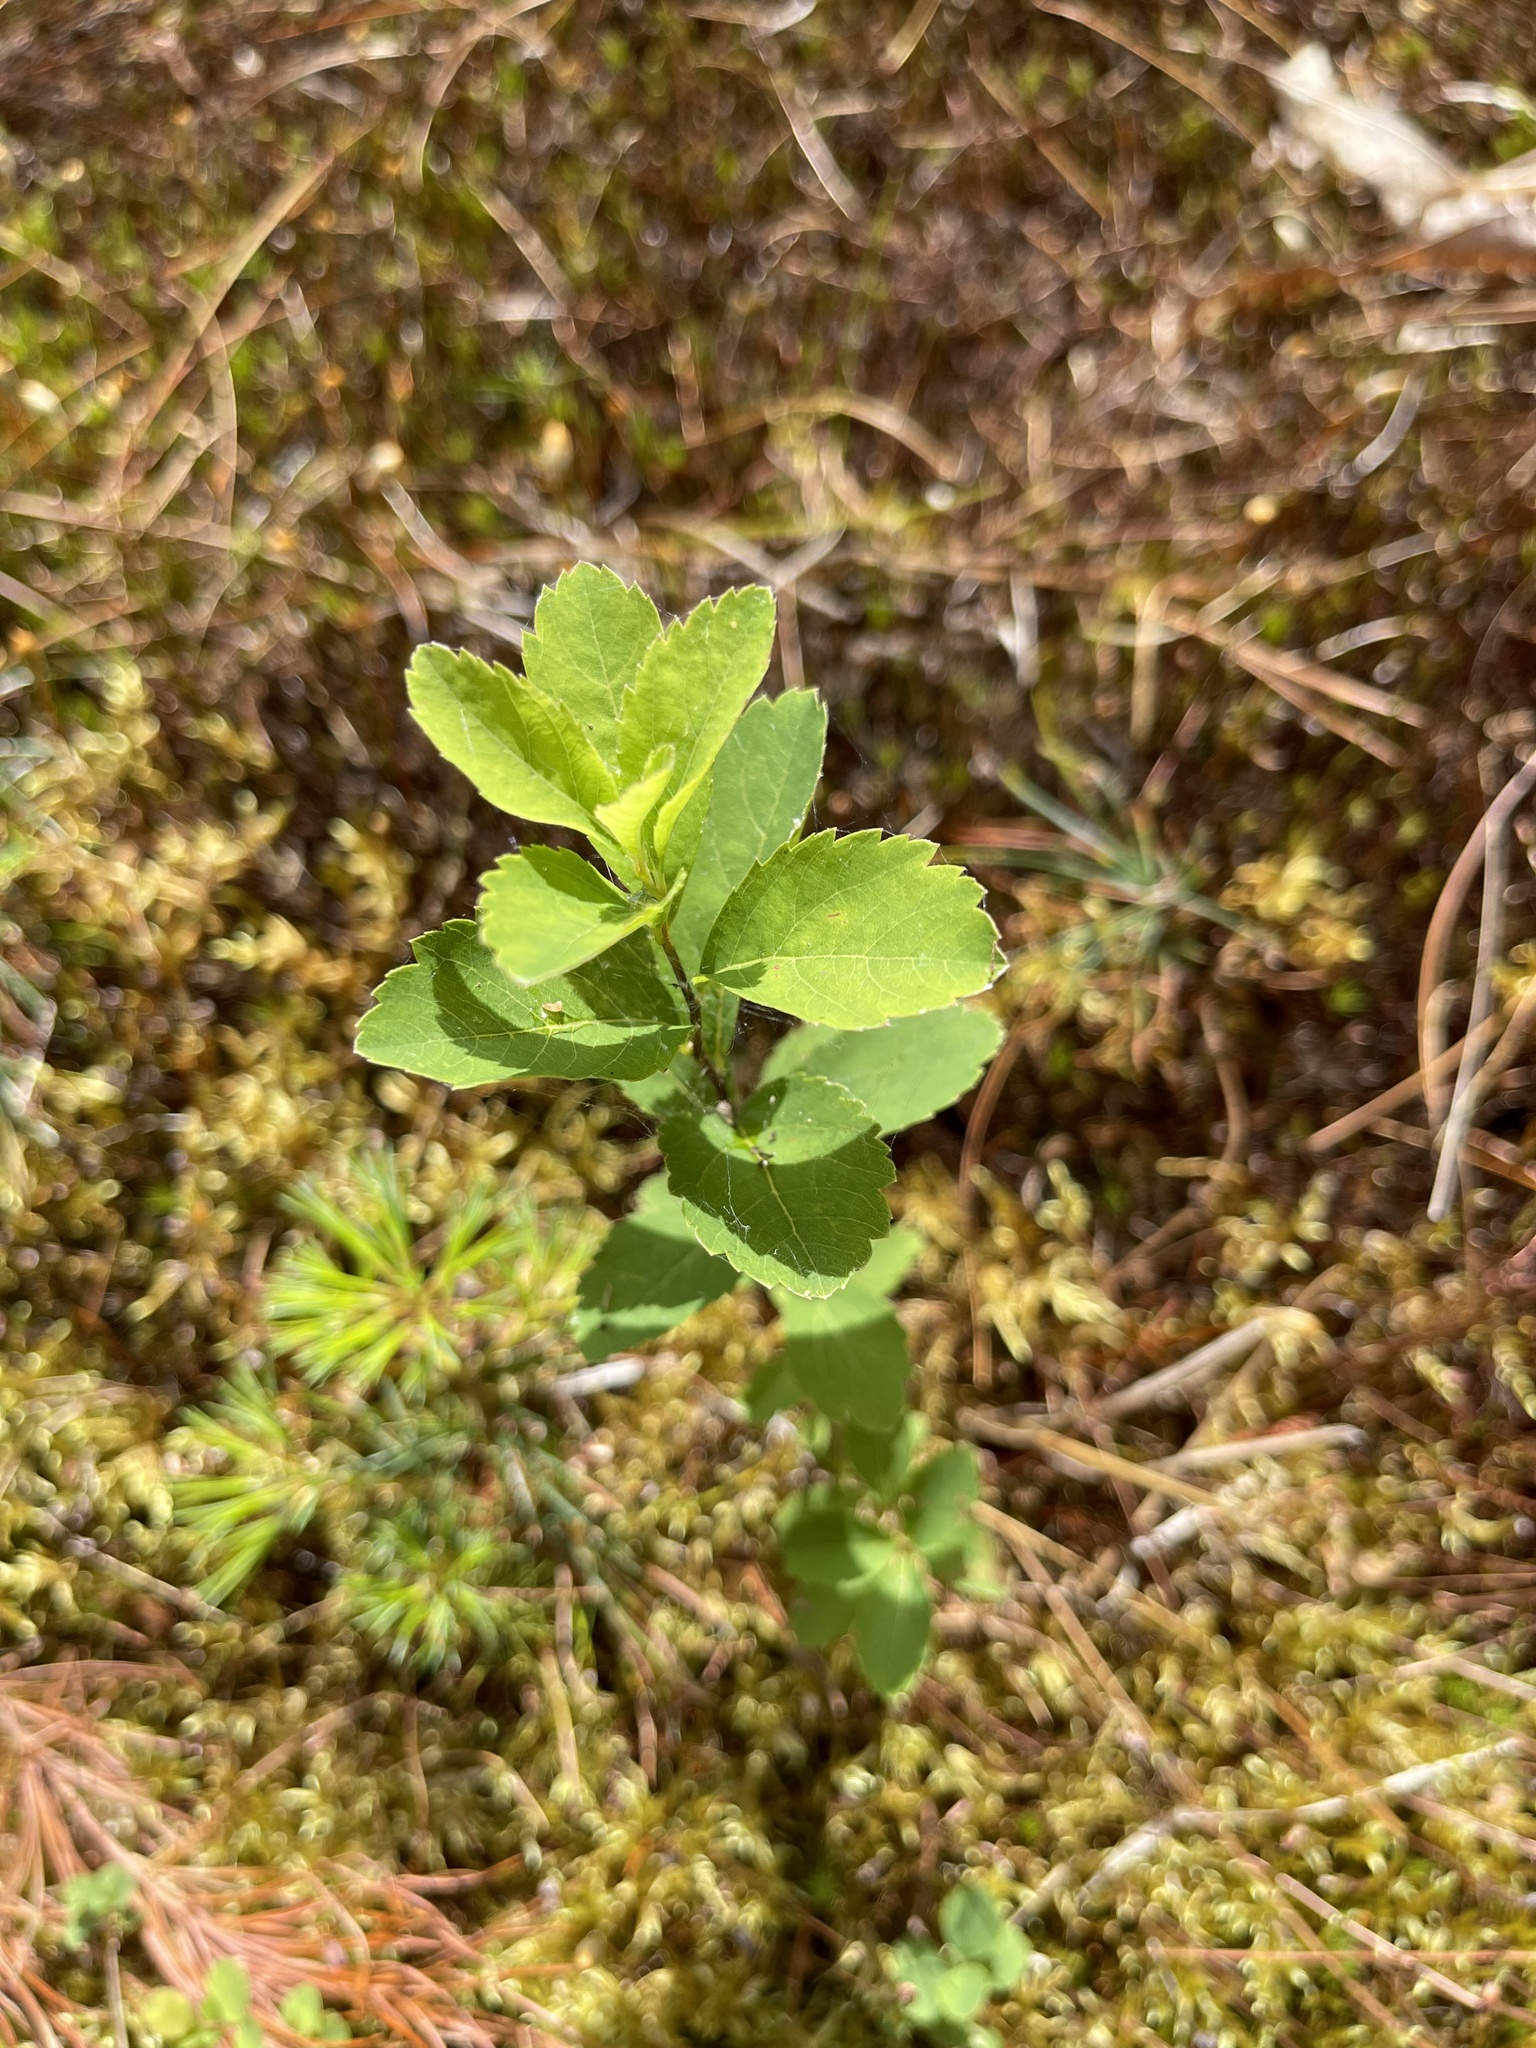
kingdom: Plantae
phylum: Tracheophyta
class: Magnoliopsida
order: Rosales
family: Rosaceae
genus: Spiraea
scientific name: Spiraea alba
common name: Pale bridewort
